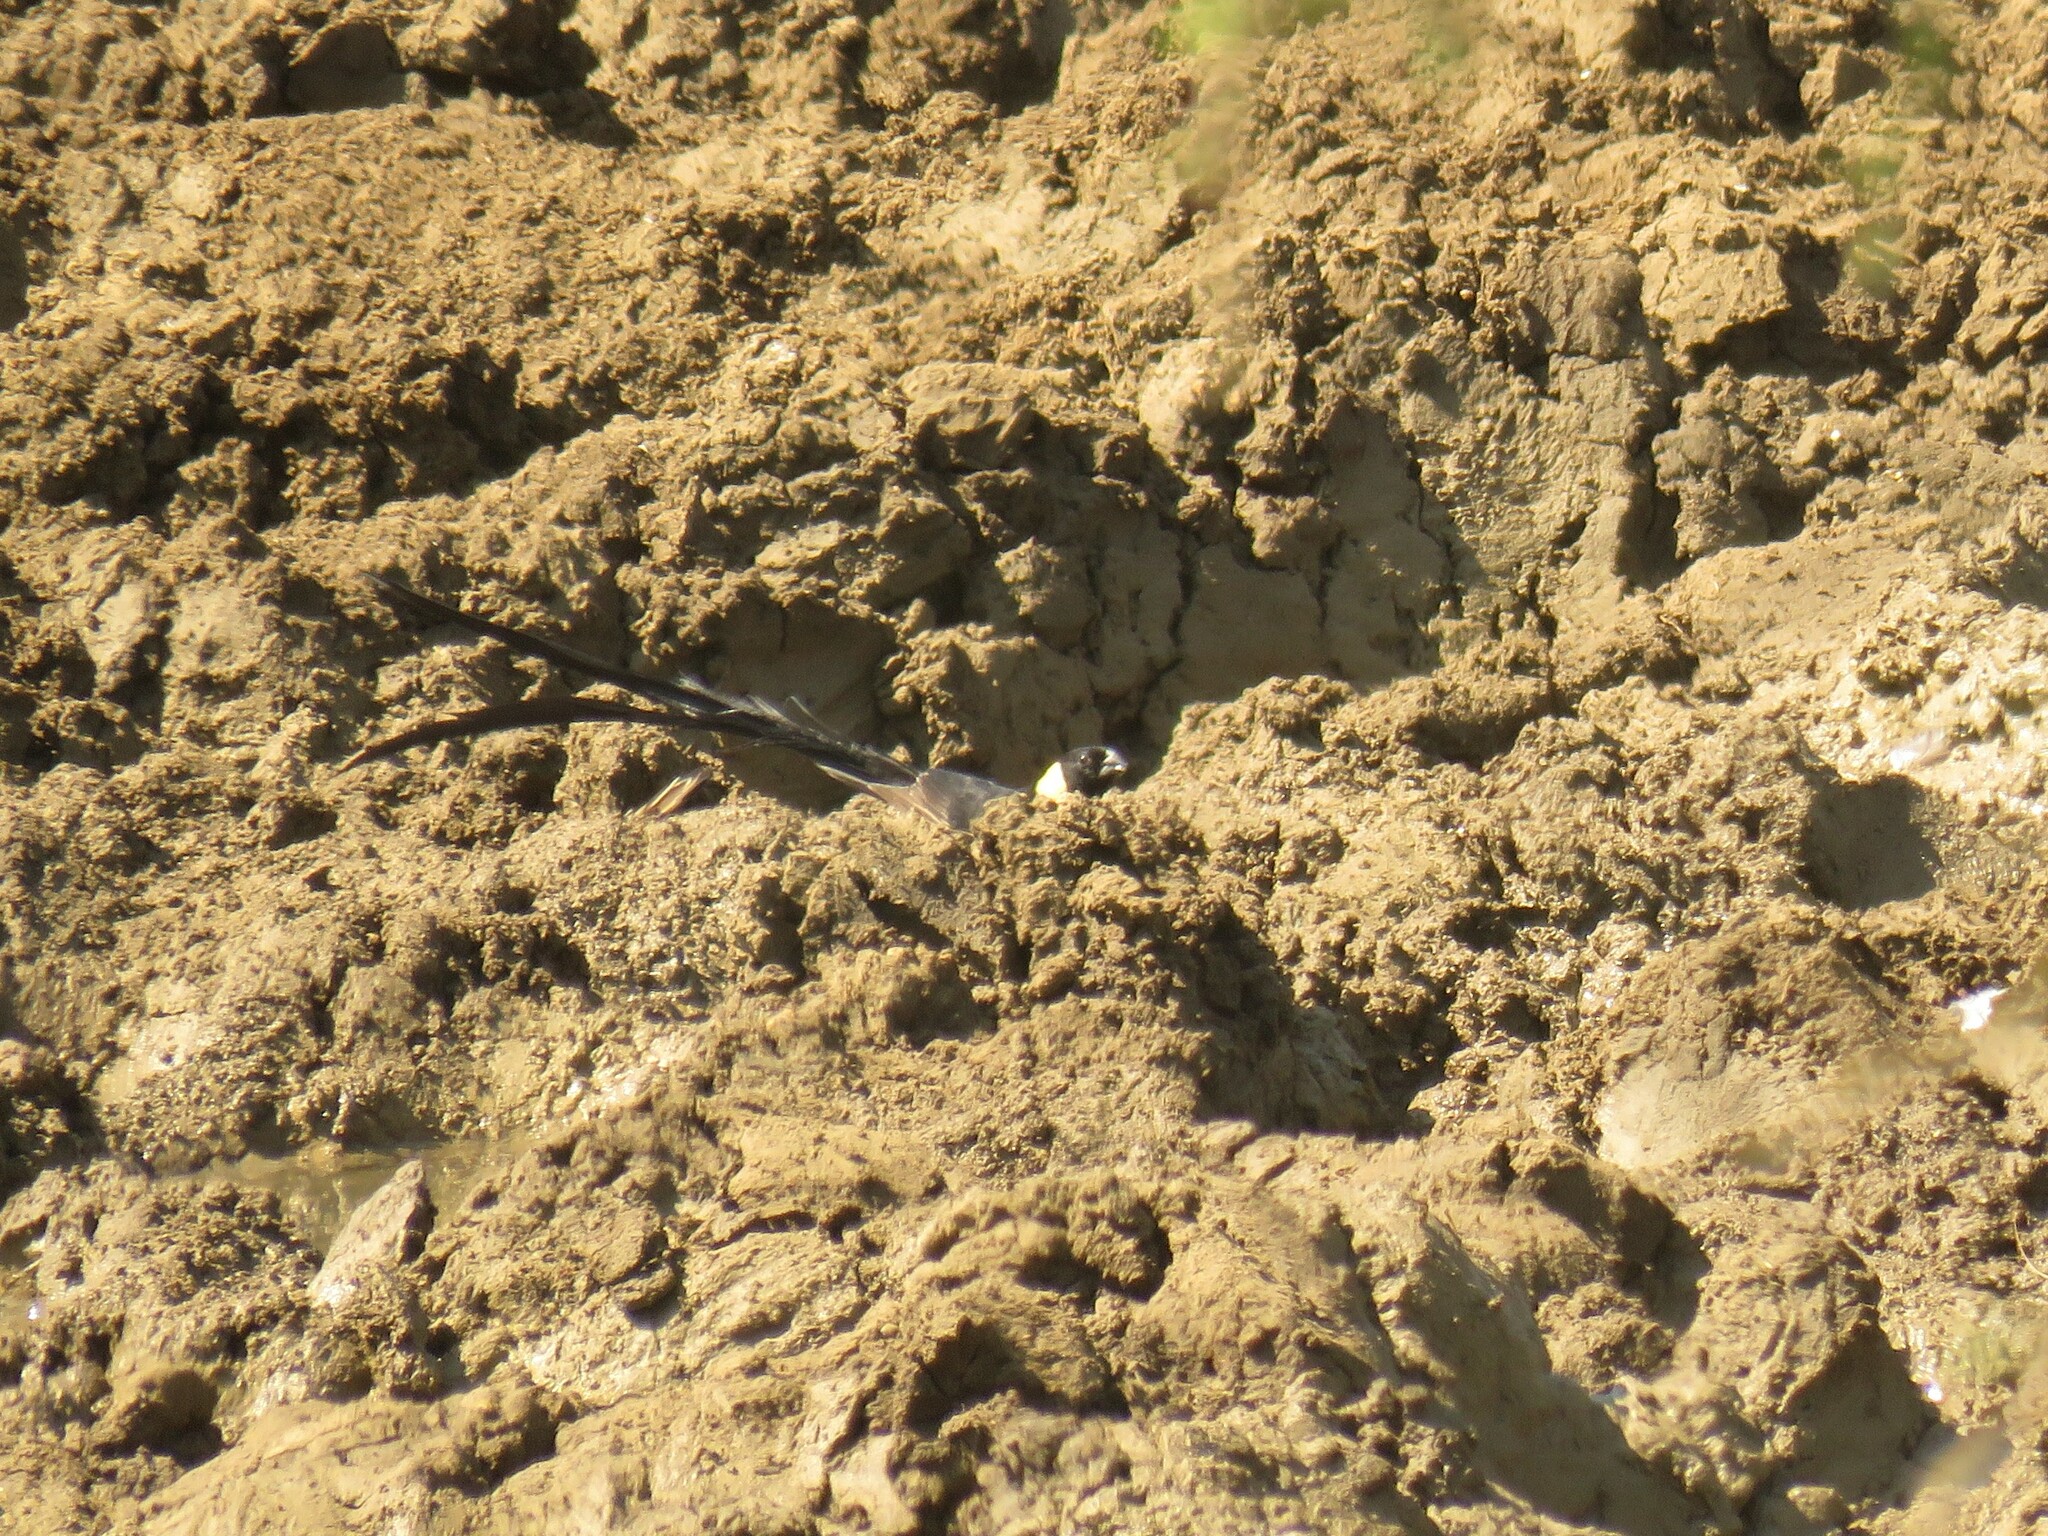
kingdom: Animalia
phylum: Chordata
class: Aves
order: Passeriformes
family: Viduidae
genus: Vidua
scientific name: Vidua paradisaea
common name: Long-tailed paradise whydah
